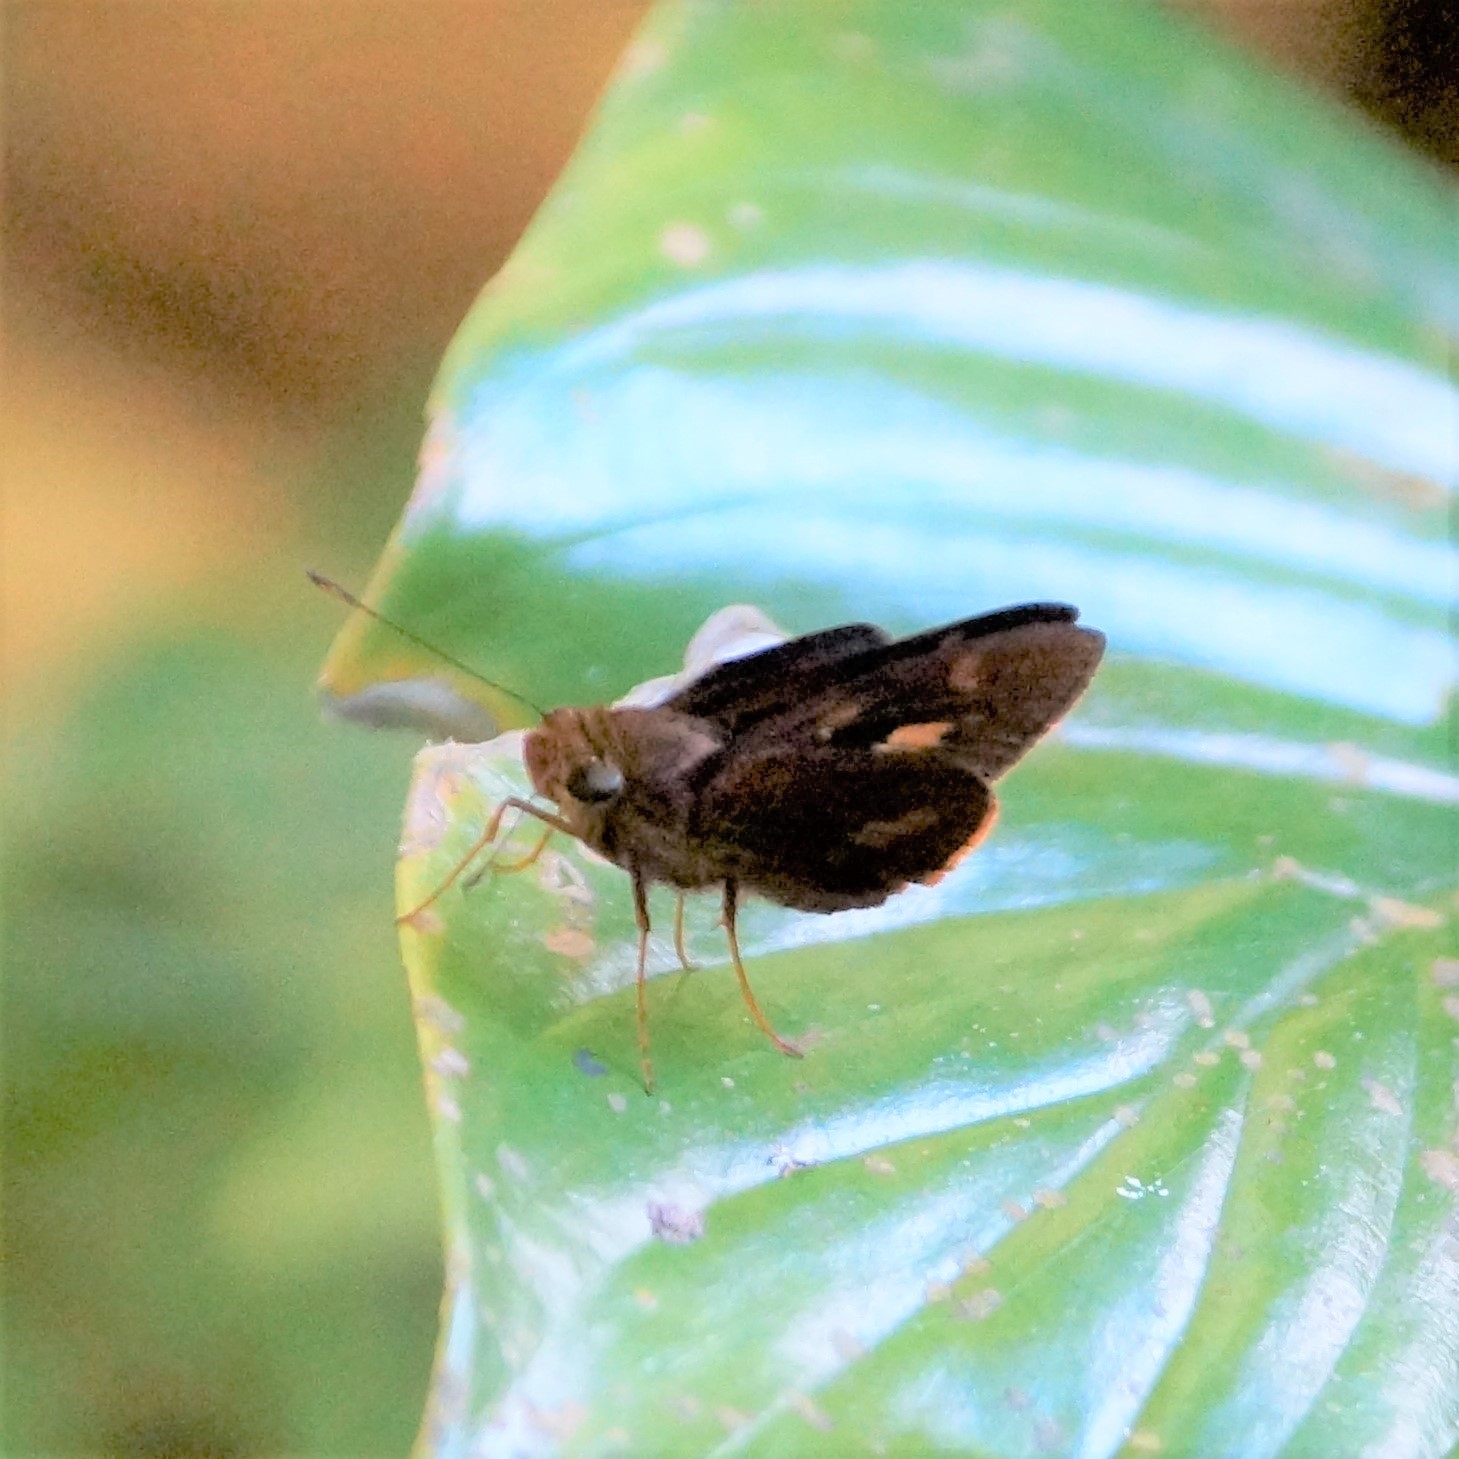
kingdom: Animalia
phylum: Arthropoda
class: Insecta
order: Lepidoptera
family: Hesperiidae
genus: Sabera
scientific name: Sabera dobboe
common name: Yellow-streaked swift
